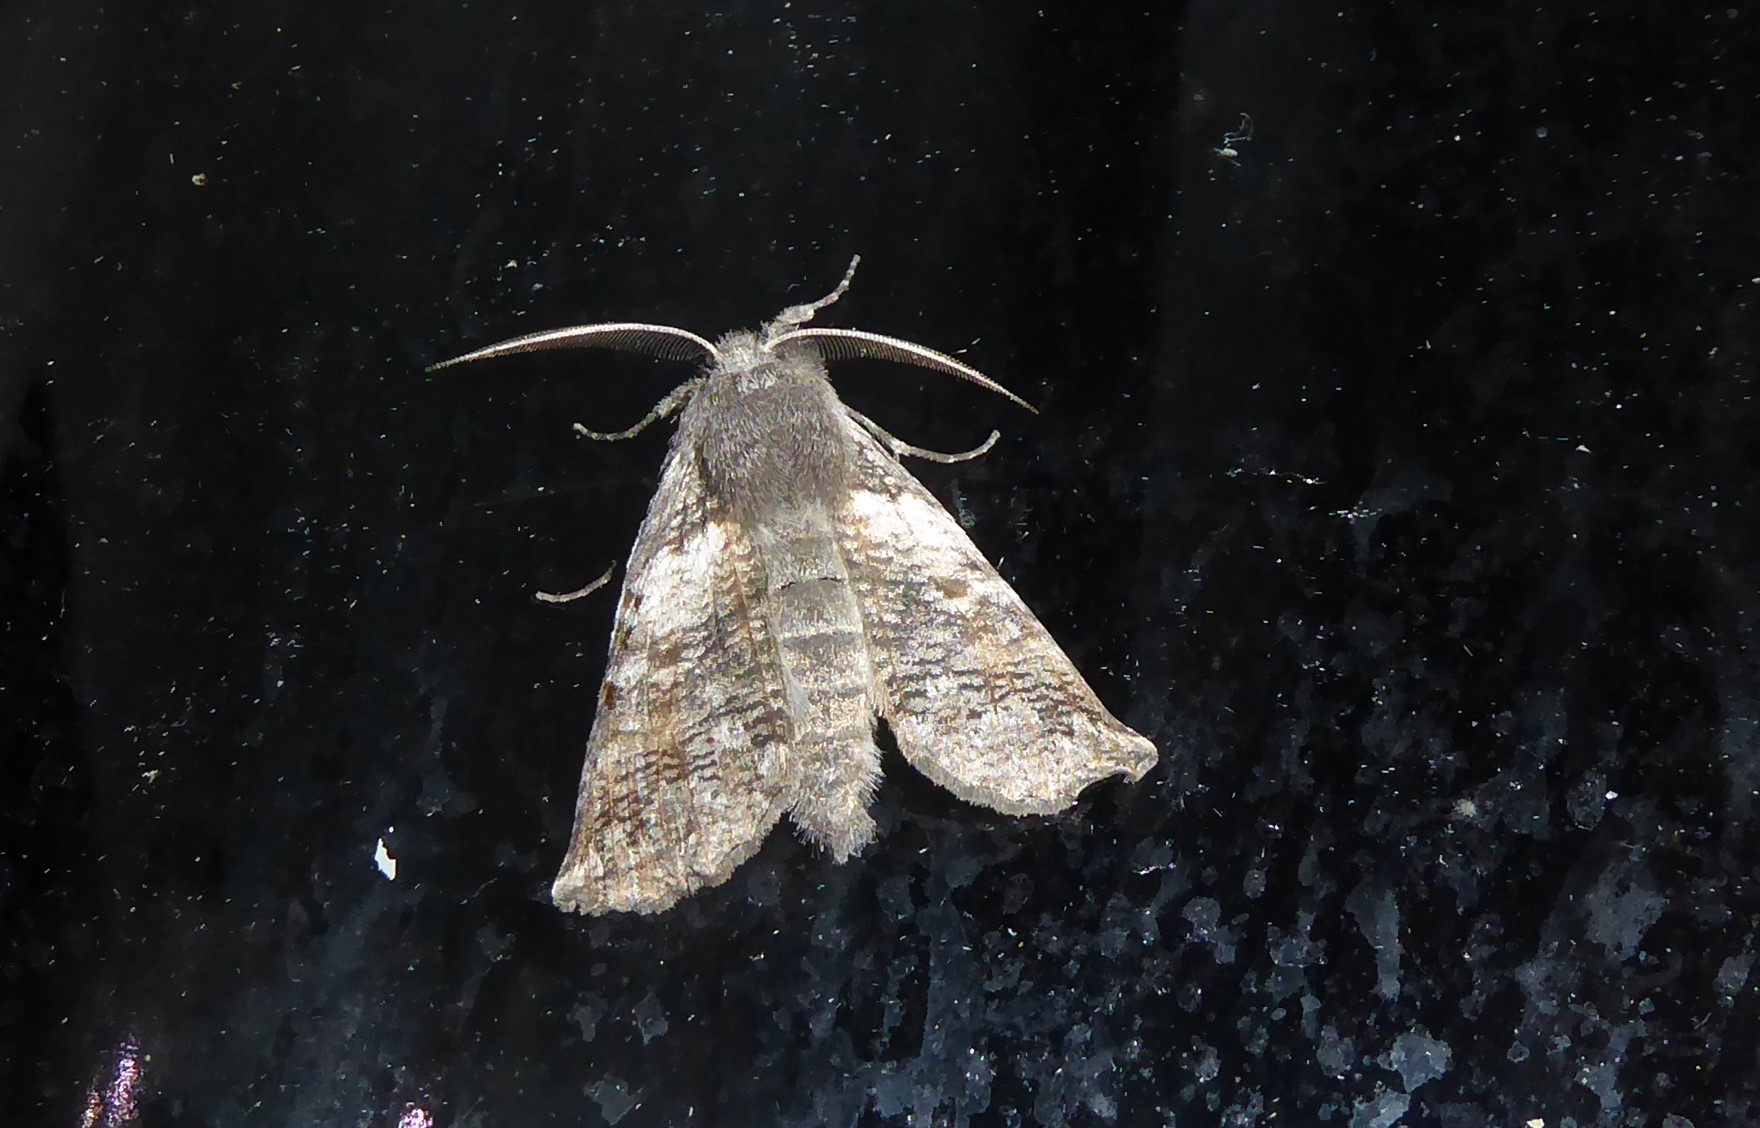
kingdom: Animalia
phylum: Arthropoda
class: Insecta
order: Lepidoptera
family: Geometridae
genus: Declana
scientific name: Declana
